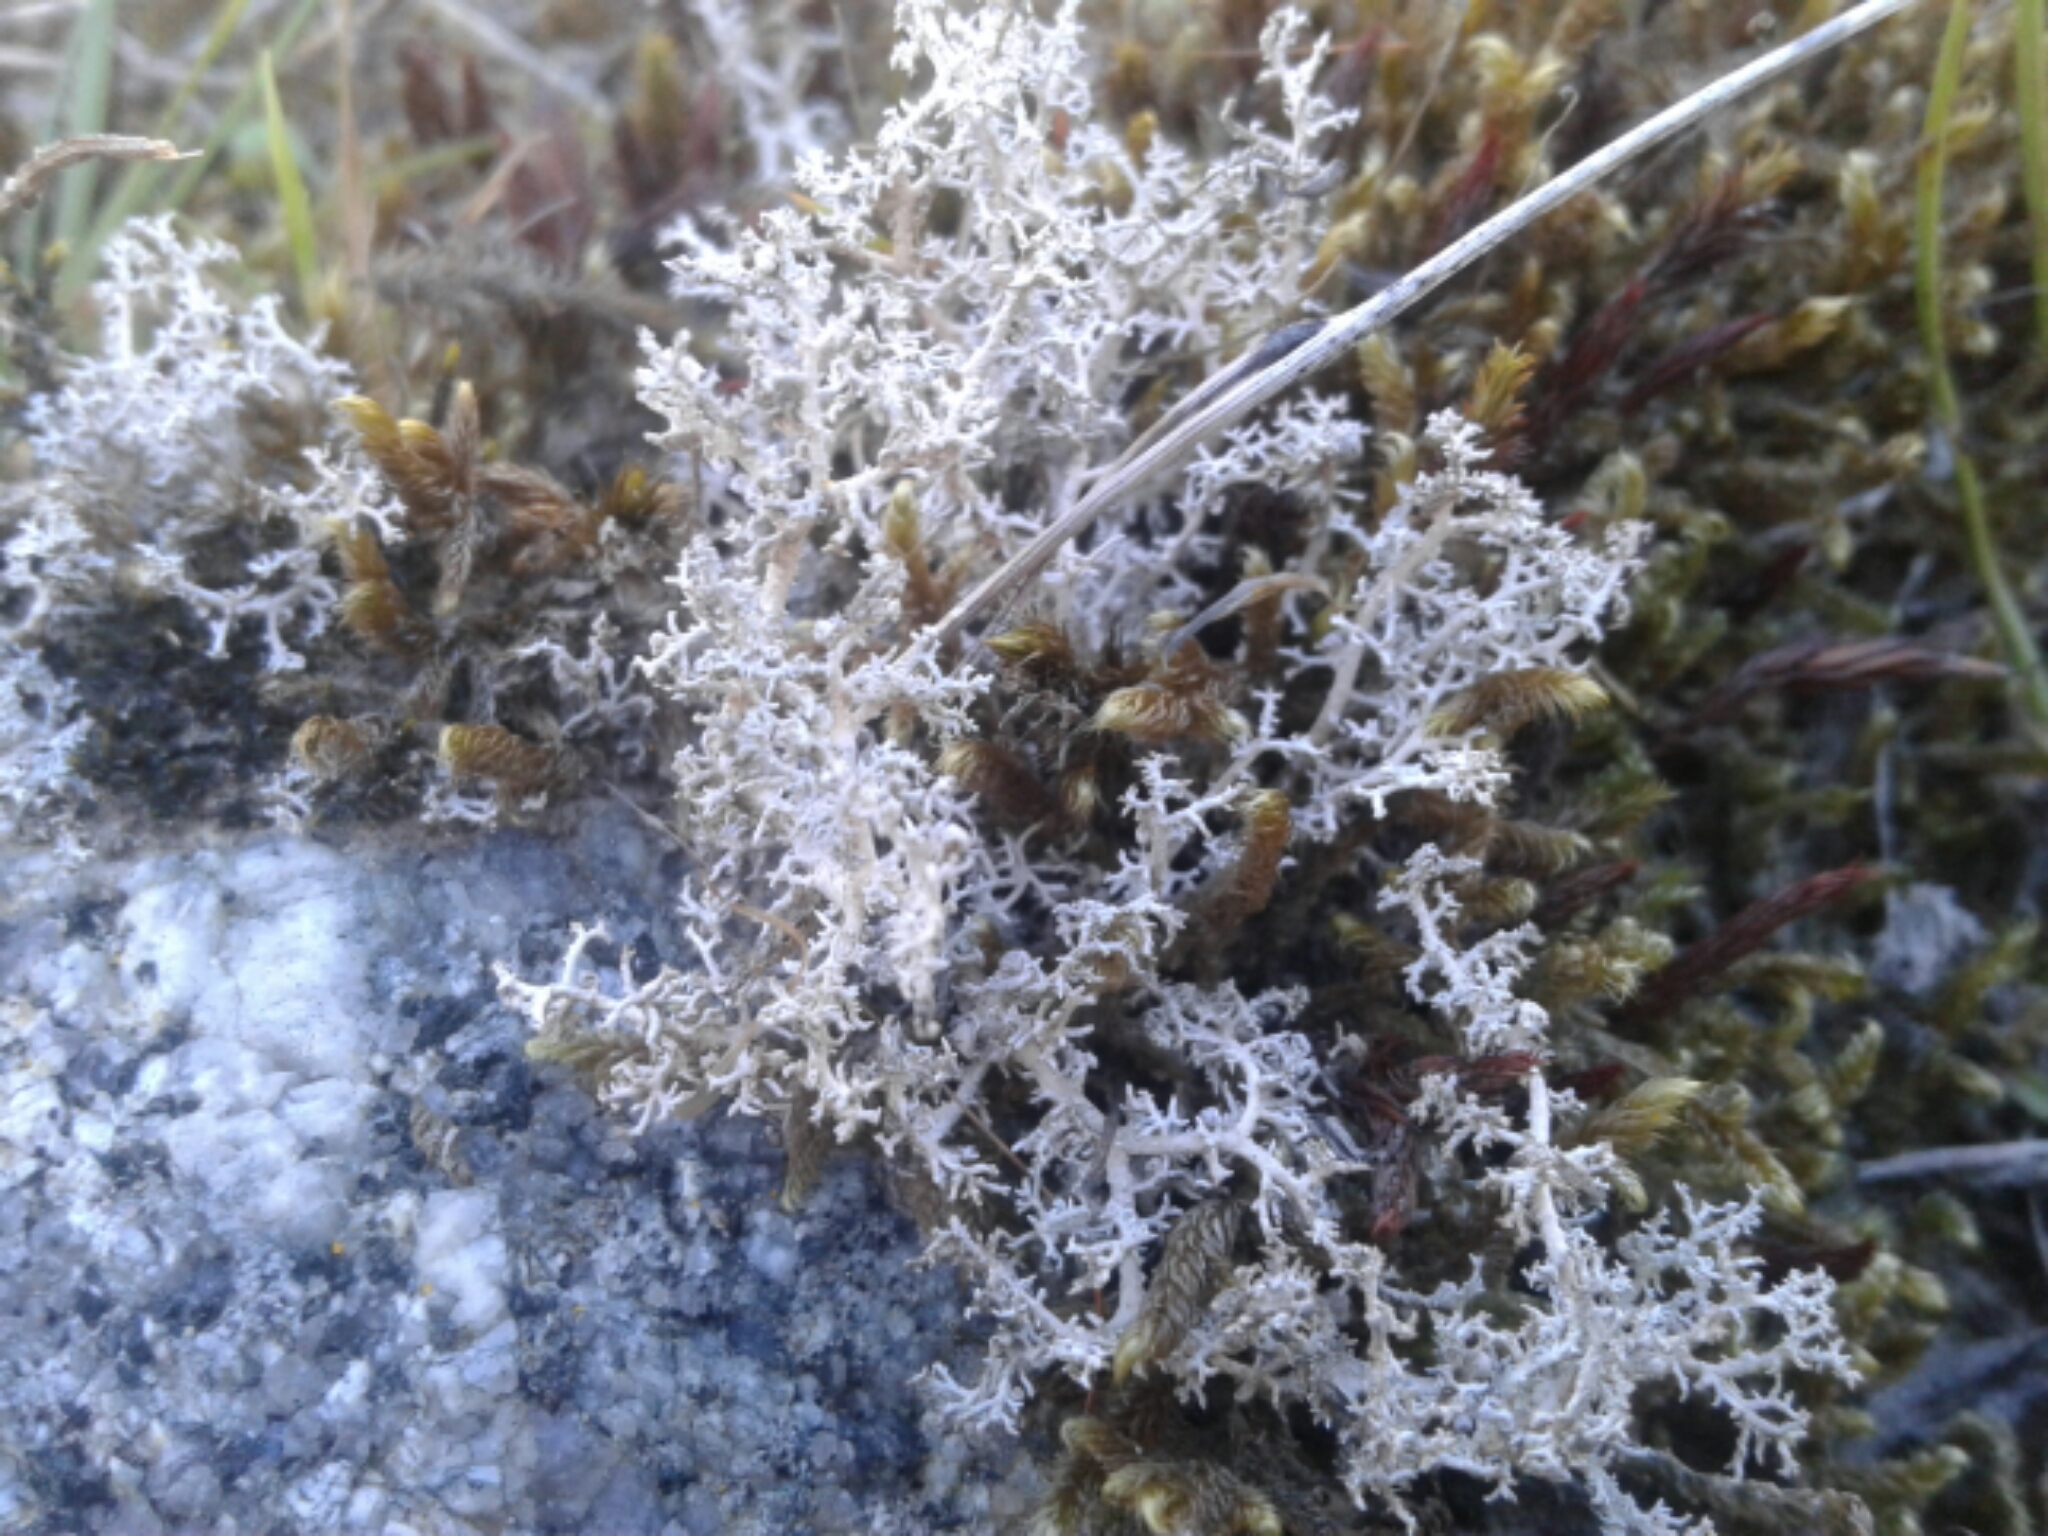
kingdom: Fungi
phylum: Ascomycota
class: Lecanoromycetes
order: Lecanorales
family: Stereocaulaceae
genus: Stereocaulon
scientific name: Stereocaulon ramulosum
